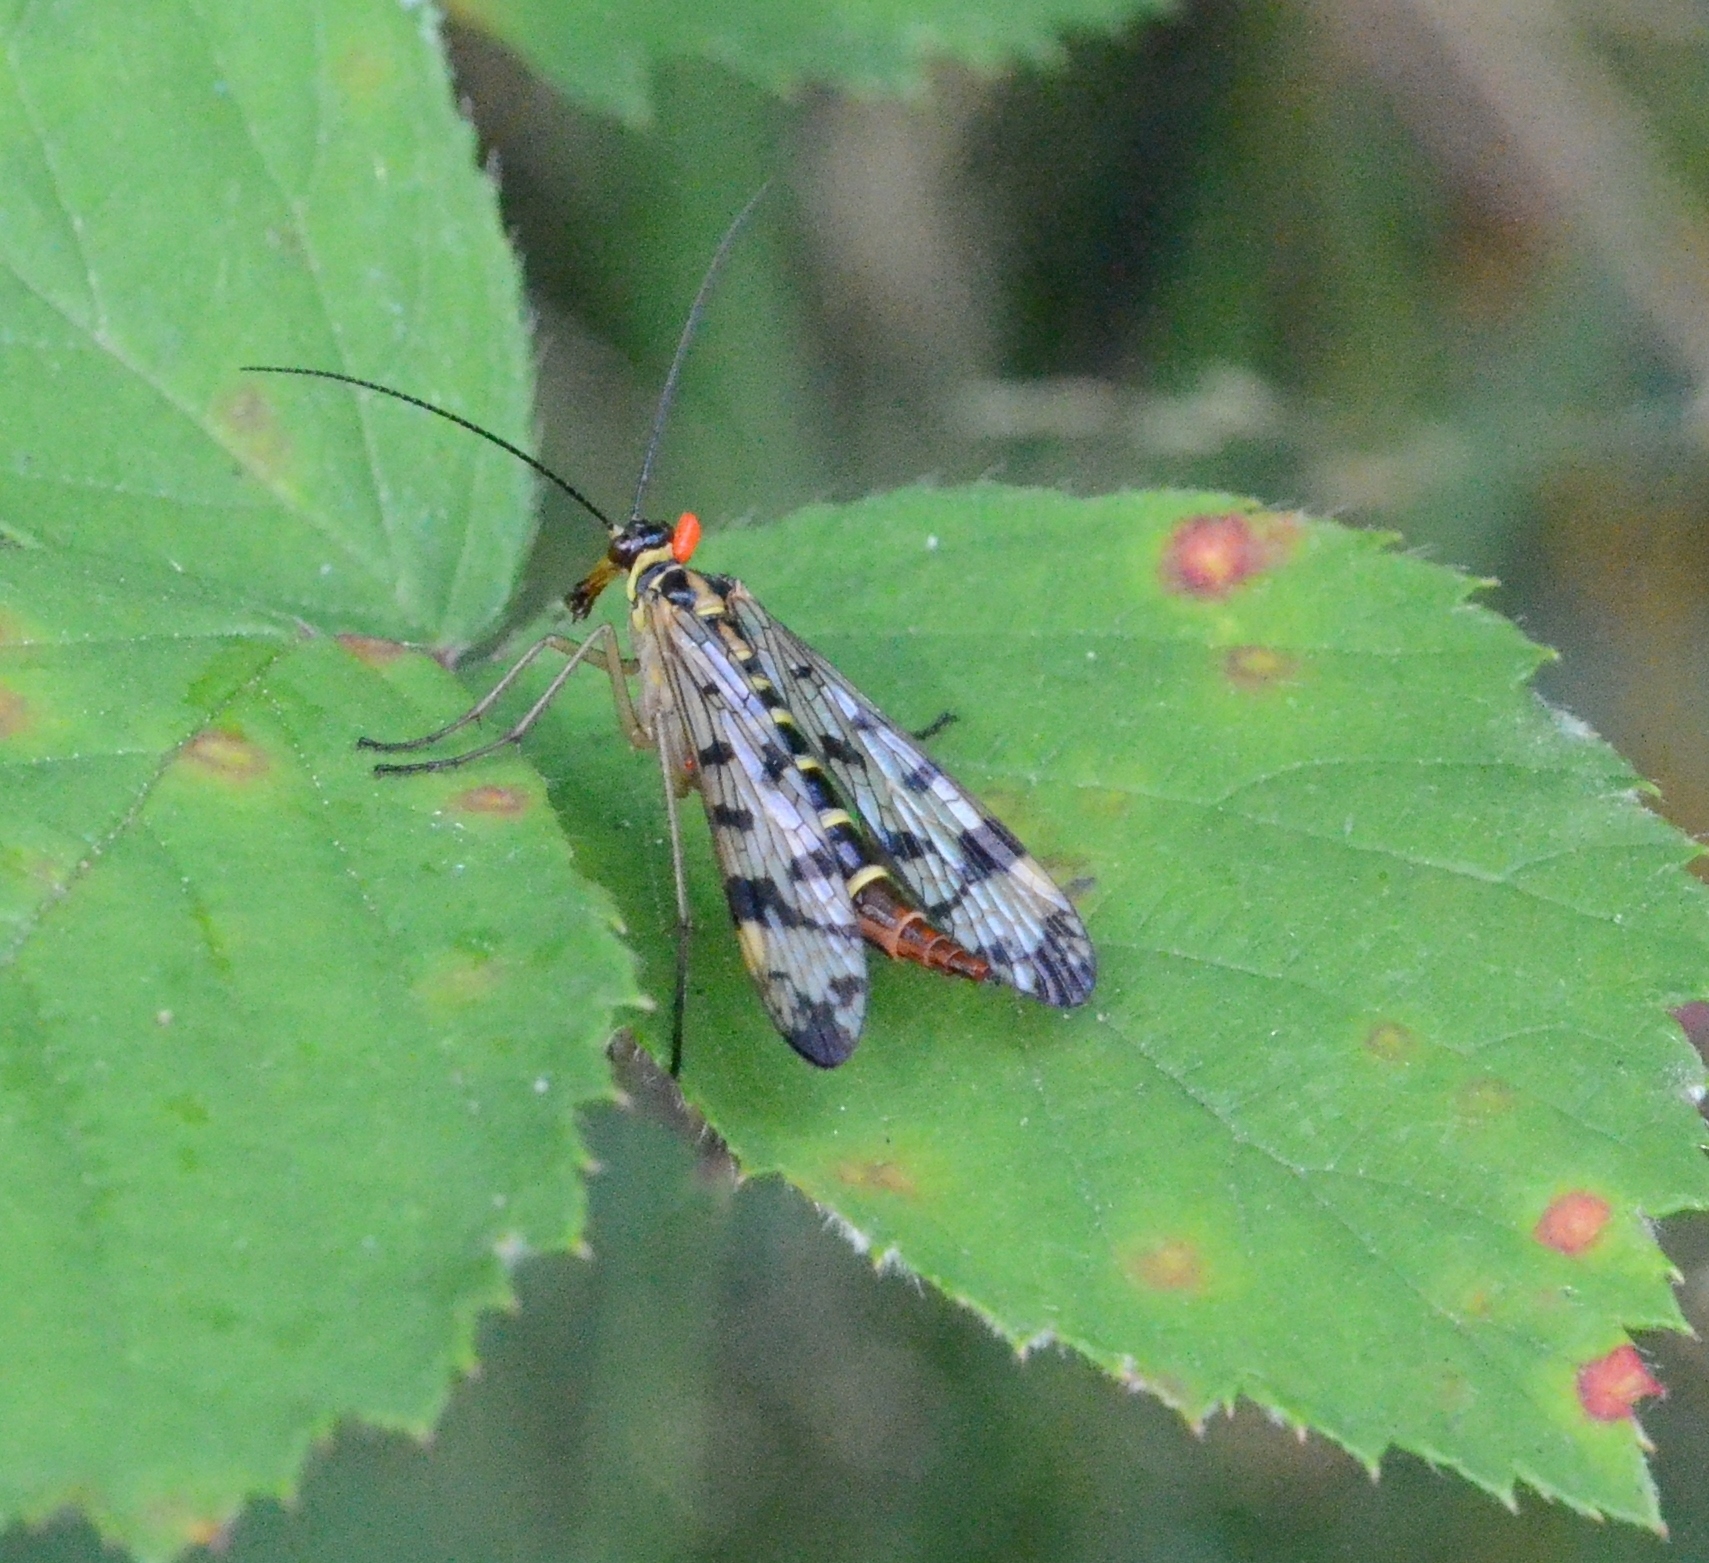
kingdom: Animalia
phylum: Arthropoda
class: Insecta
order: Mecoptera
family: Panorpidae
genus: Panorpa
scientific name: Panorpa communis
